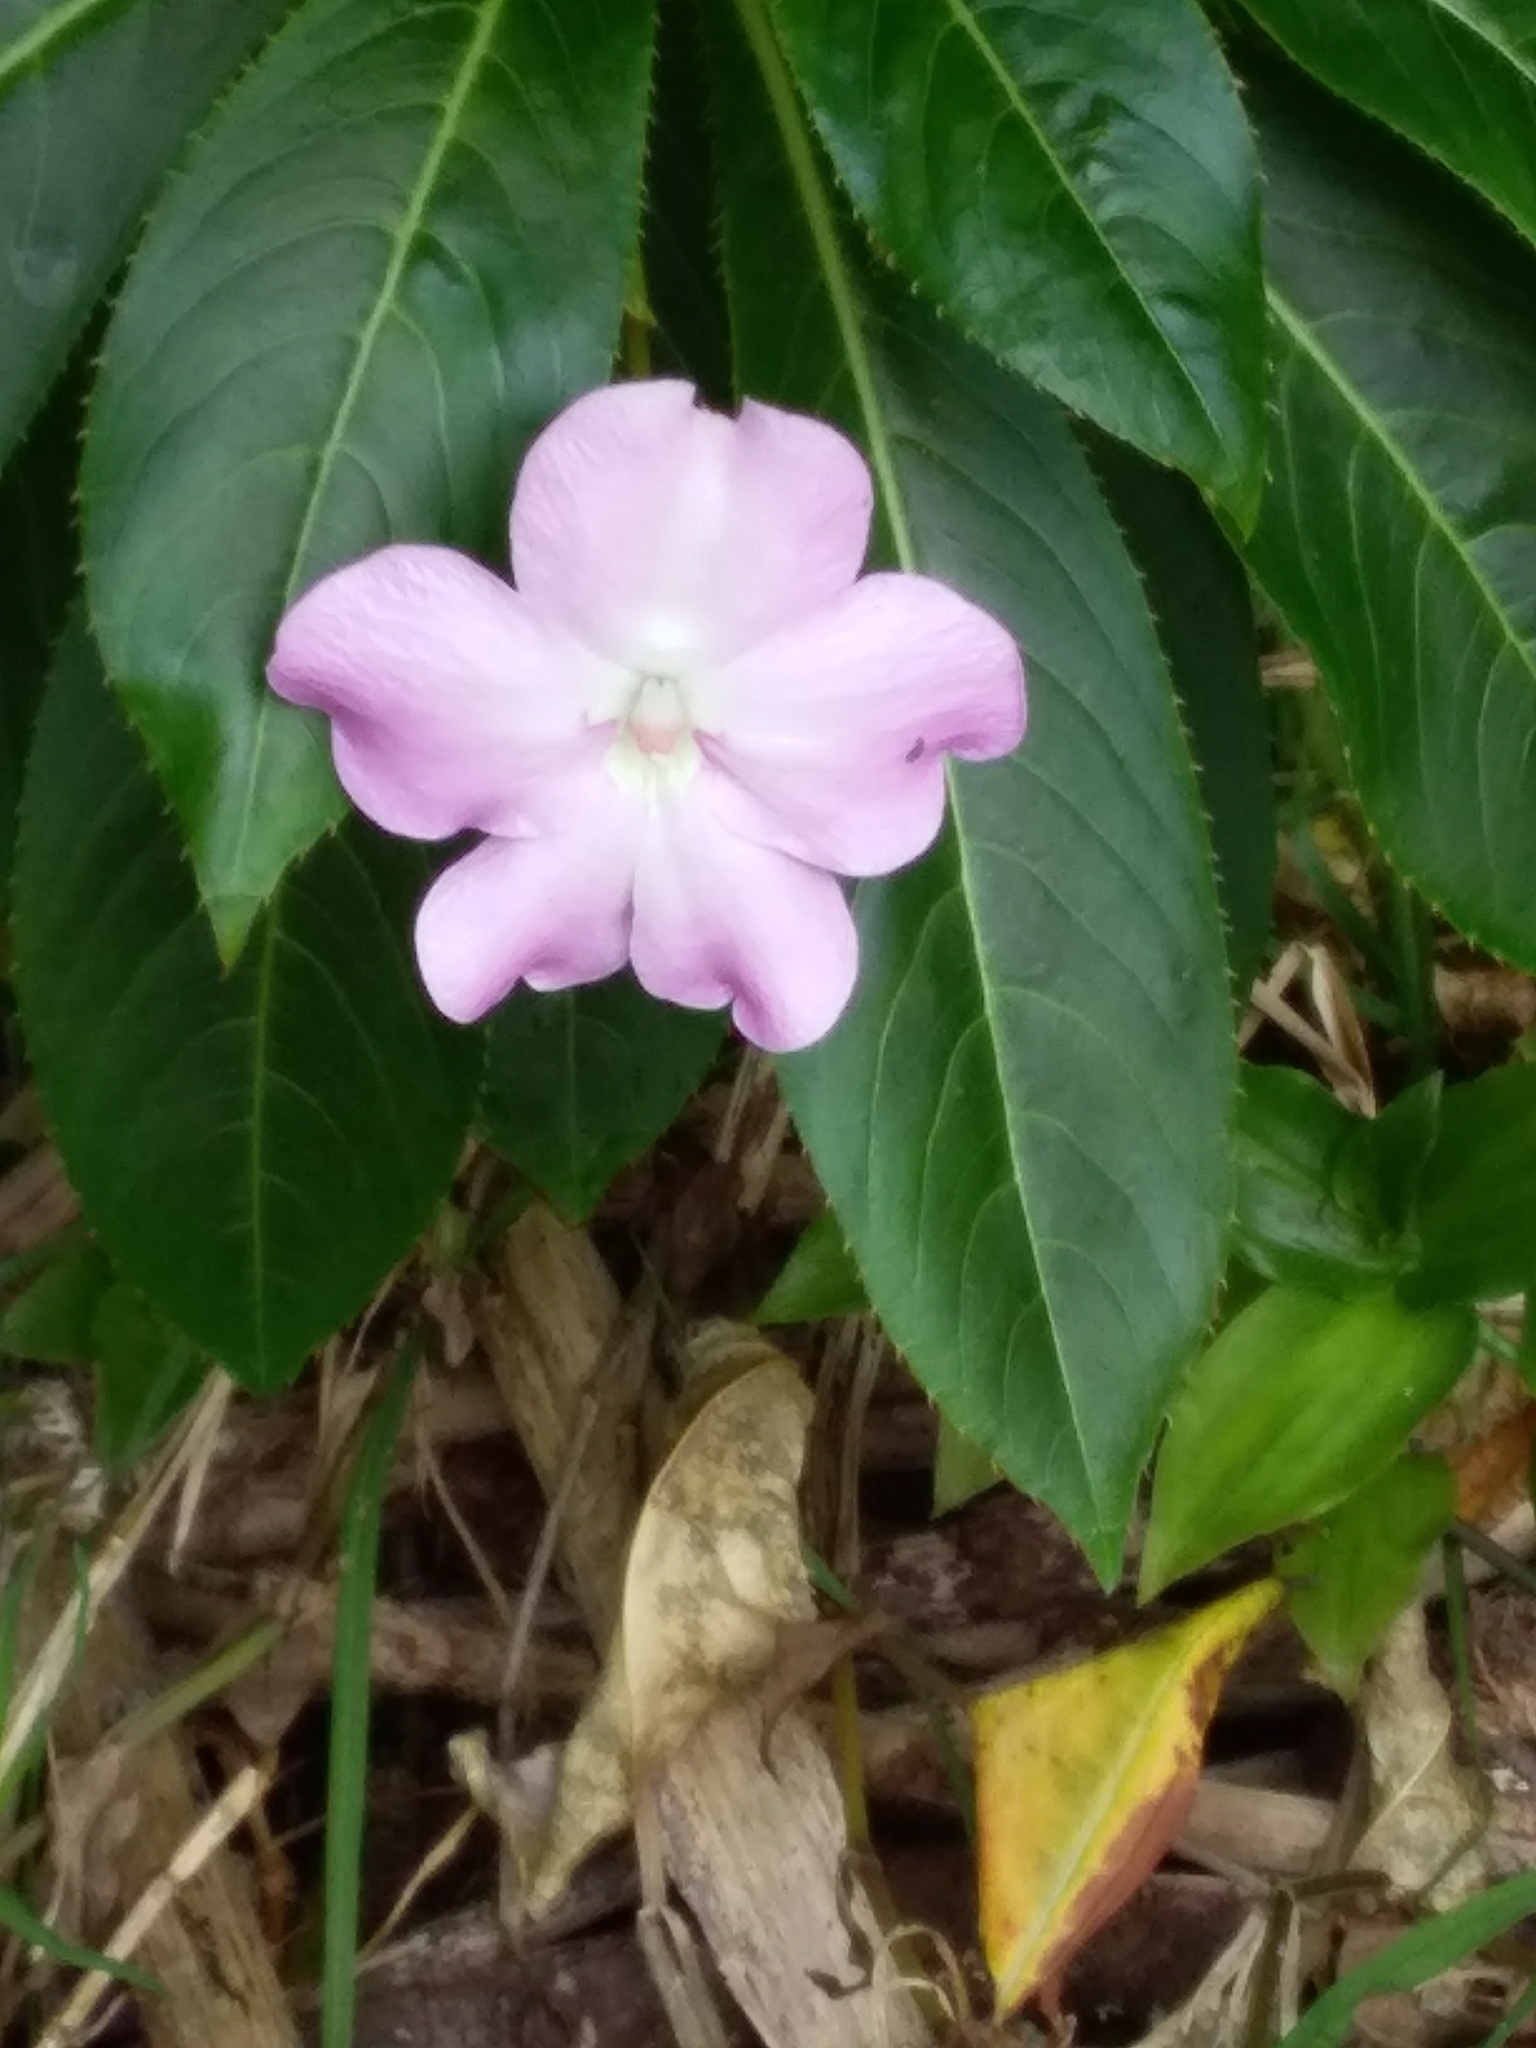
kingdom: Plantae
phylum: Tracheophyta
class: Magnoliopsida
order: Ericales
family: Balsaminaceae
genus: Impatiens
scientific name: Impatiens sodenii
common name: Oliver's touch-me-not
